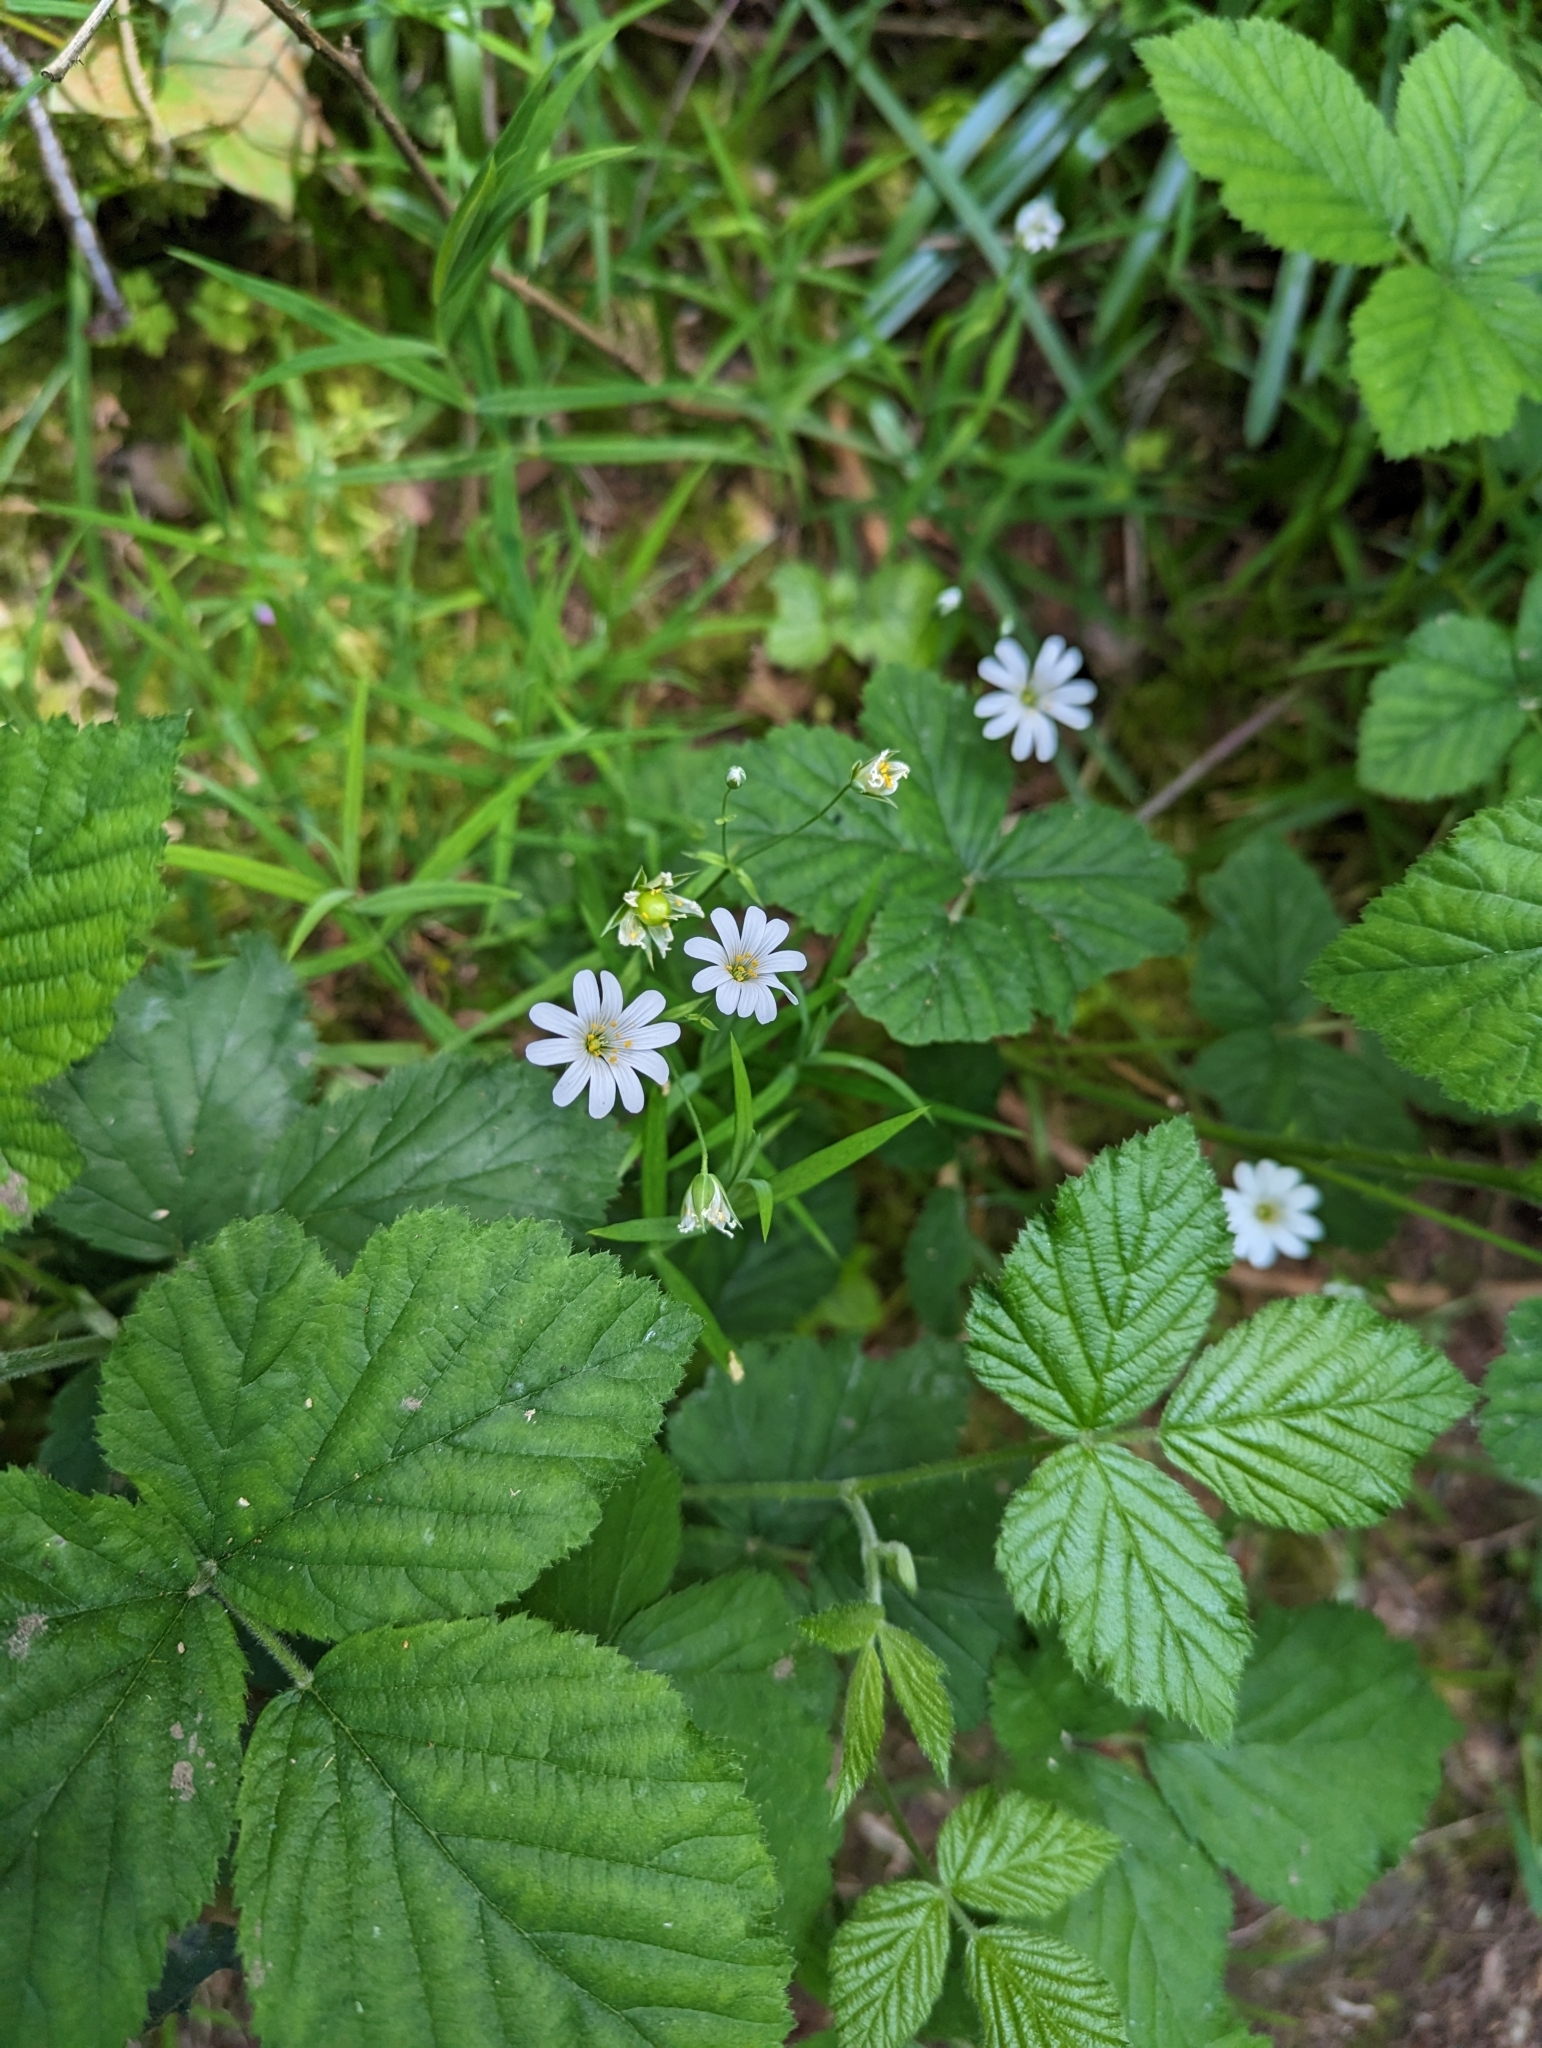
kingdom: Plantae
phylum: Tracheophyta
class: Magnoliopsida
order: Caryophyllales
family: Caryophyllaceae
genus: Rabelera
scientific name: Rabelera holostea
